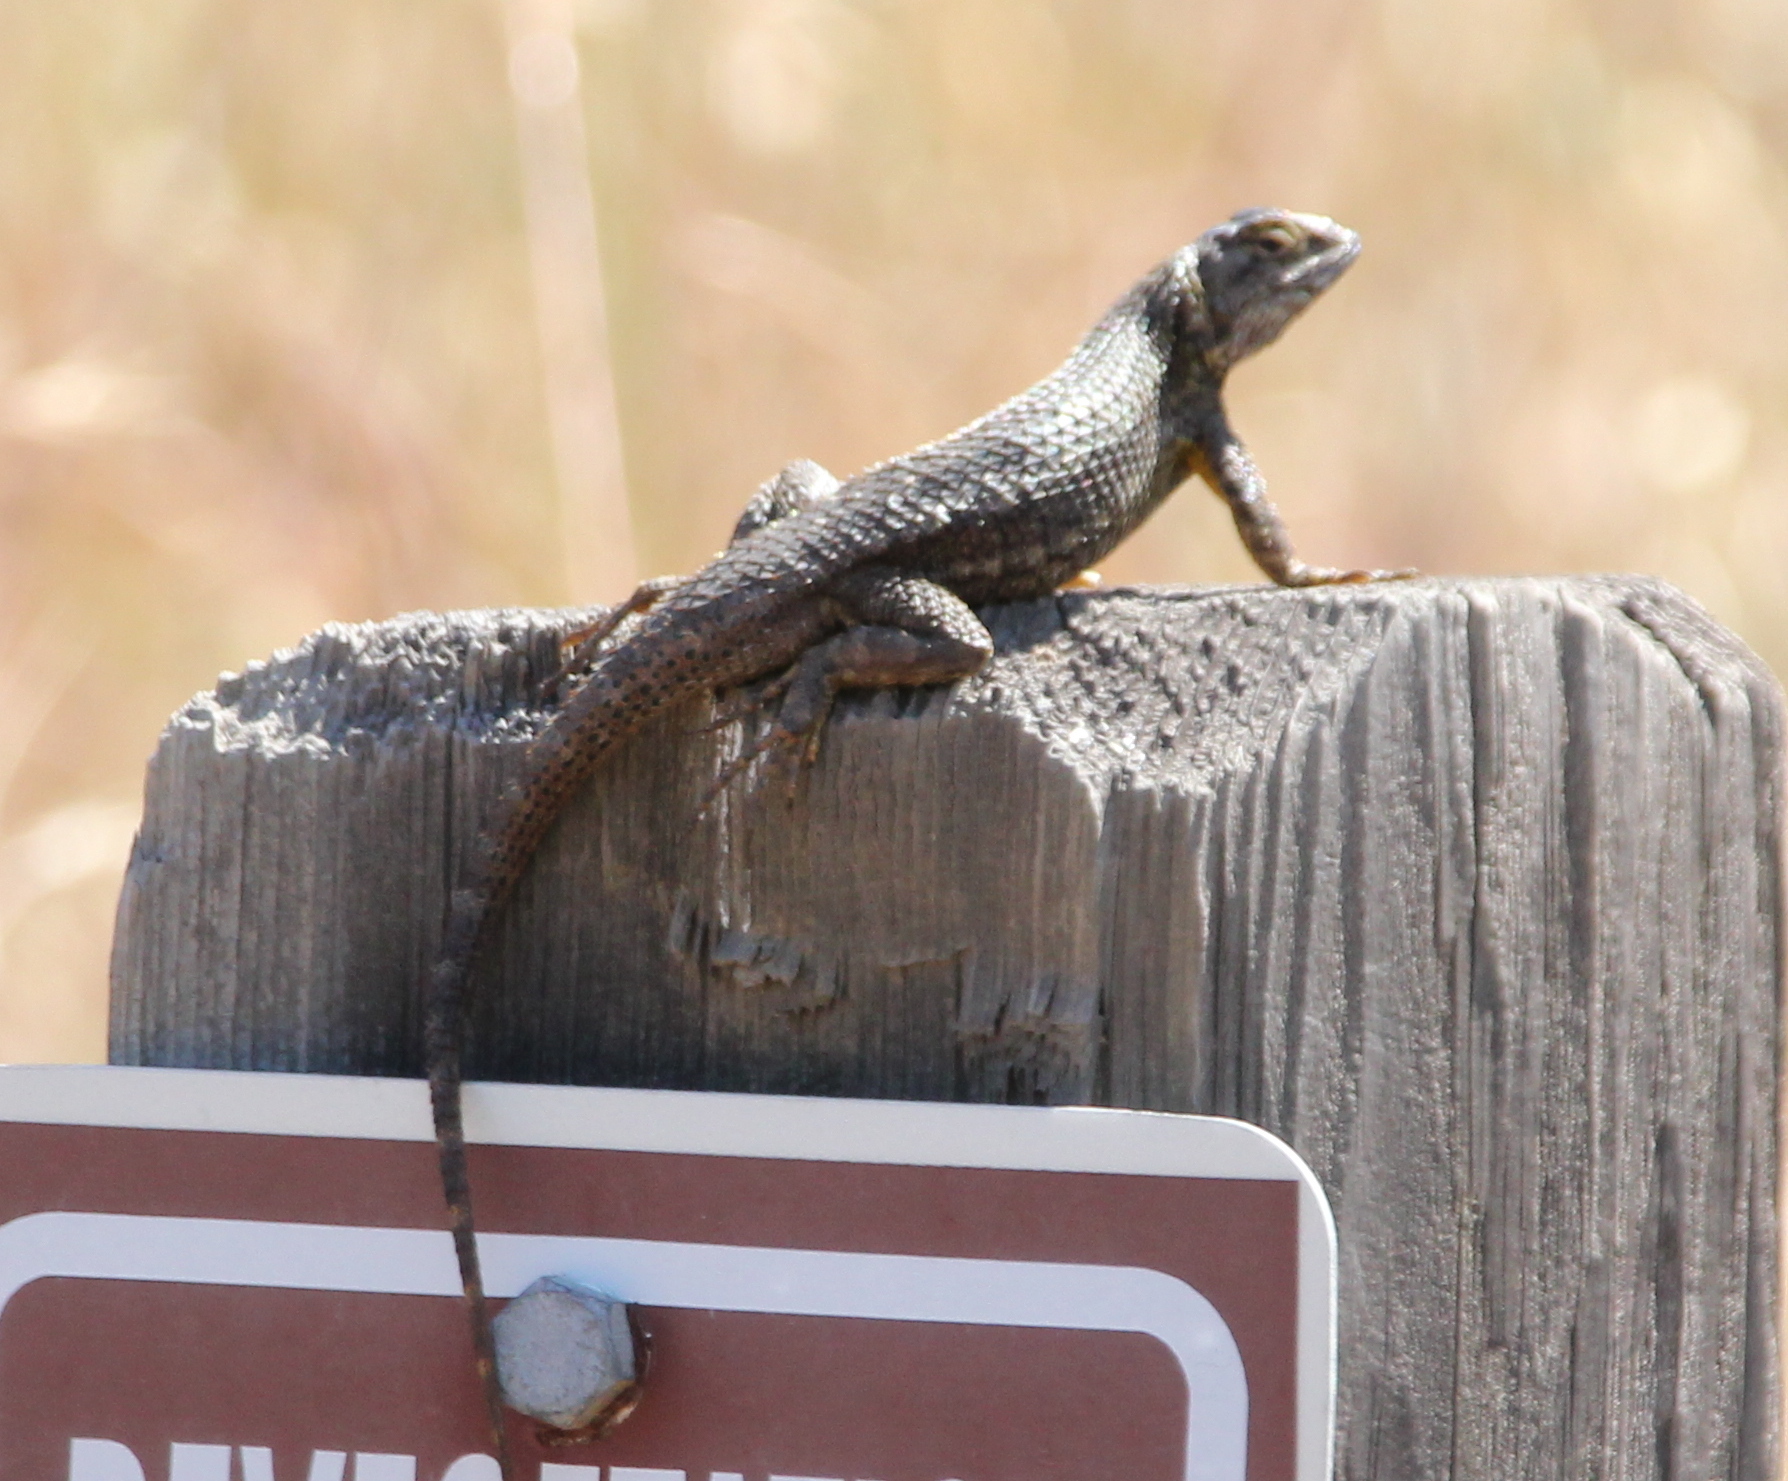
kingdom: Animalia
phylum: Chordata
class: Squamata
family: Phrynosomatidae
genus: Sceloporus
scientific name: Sceloporus occidentalis
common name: Western fence lizard
